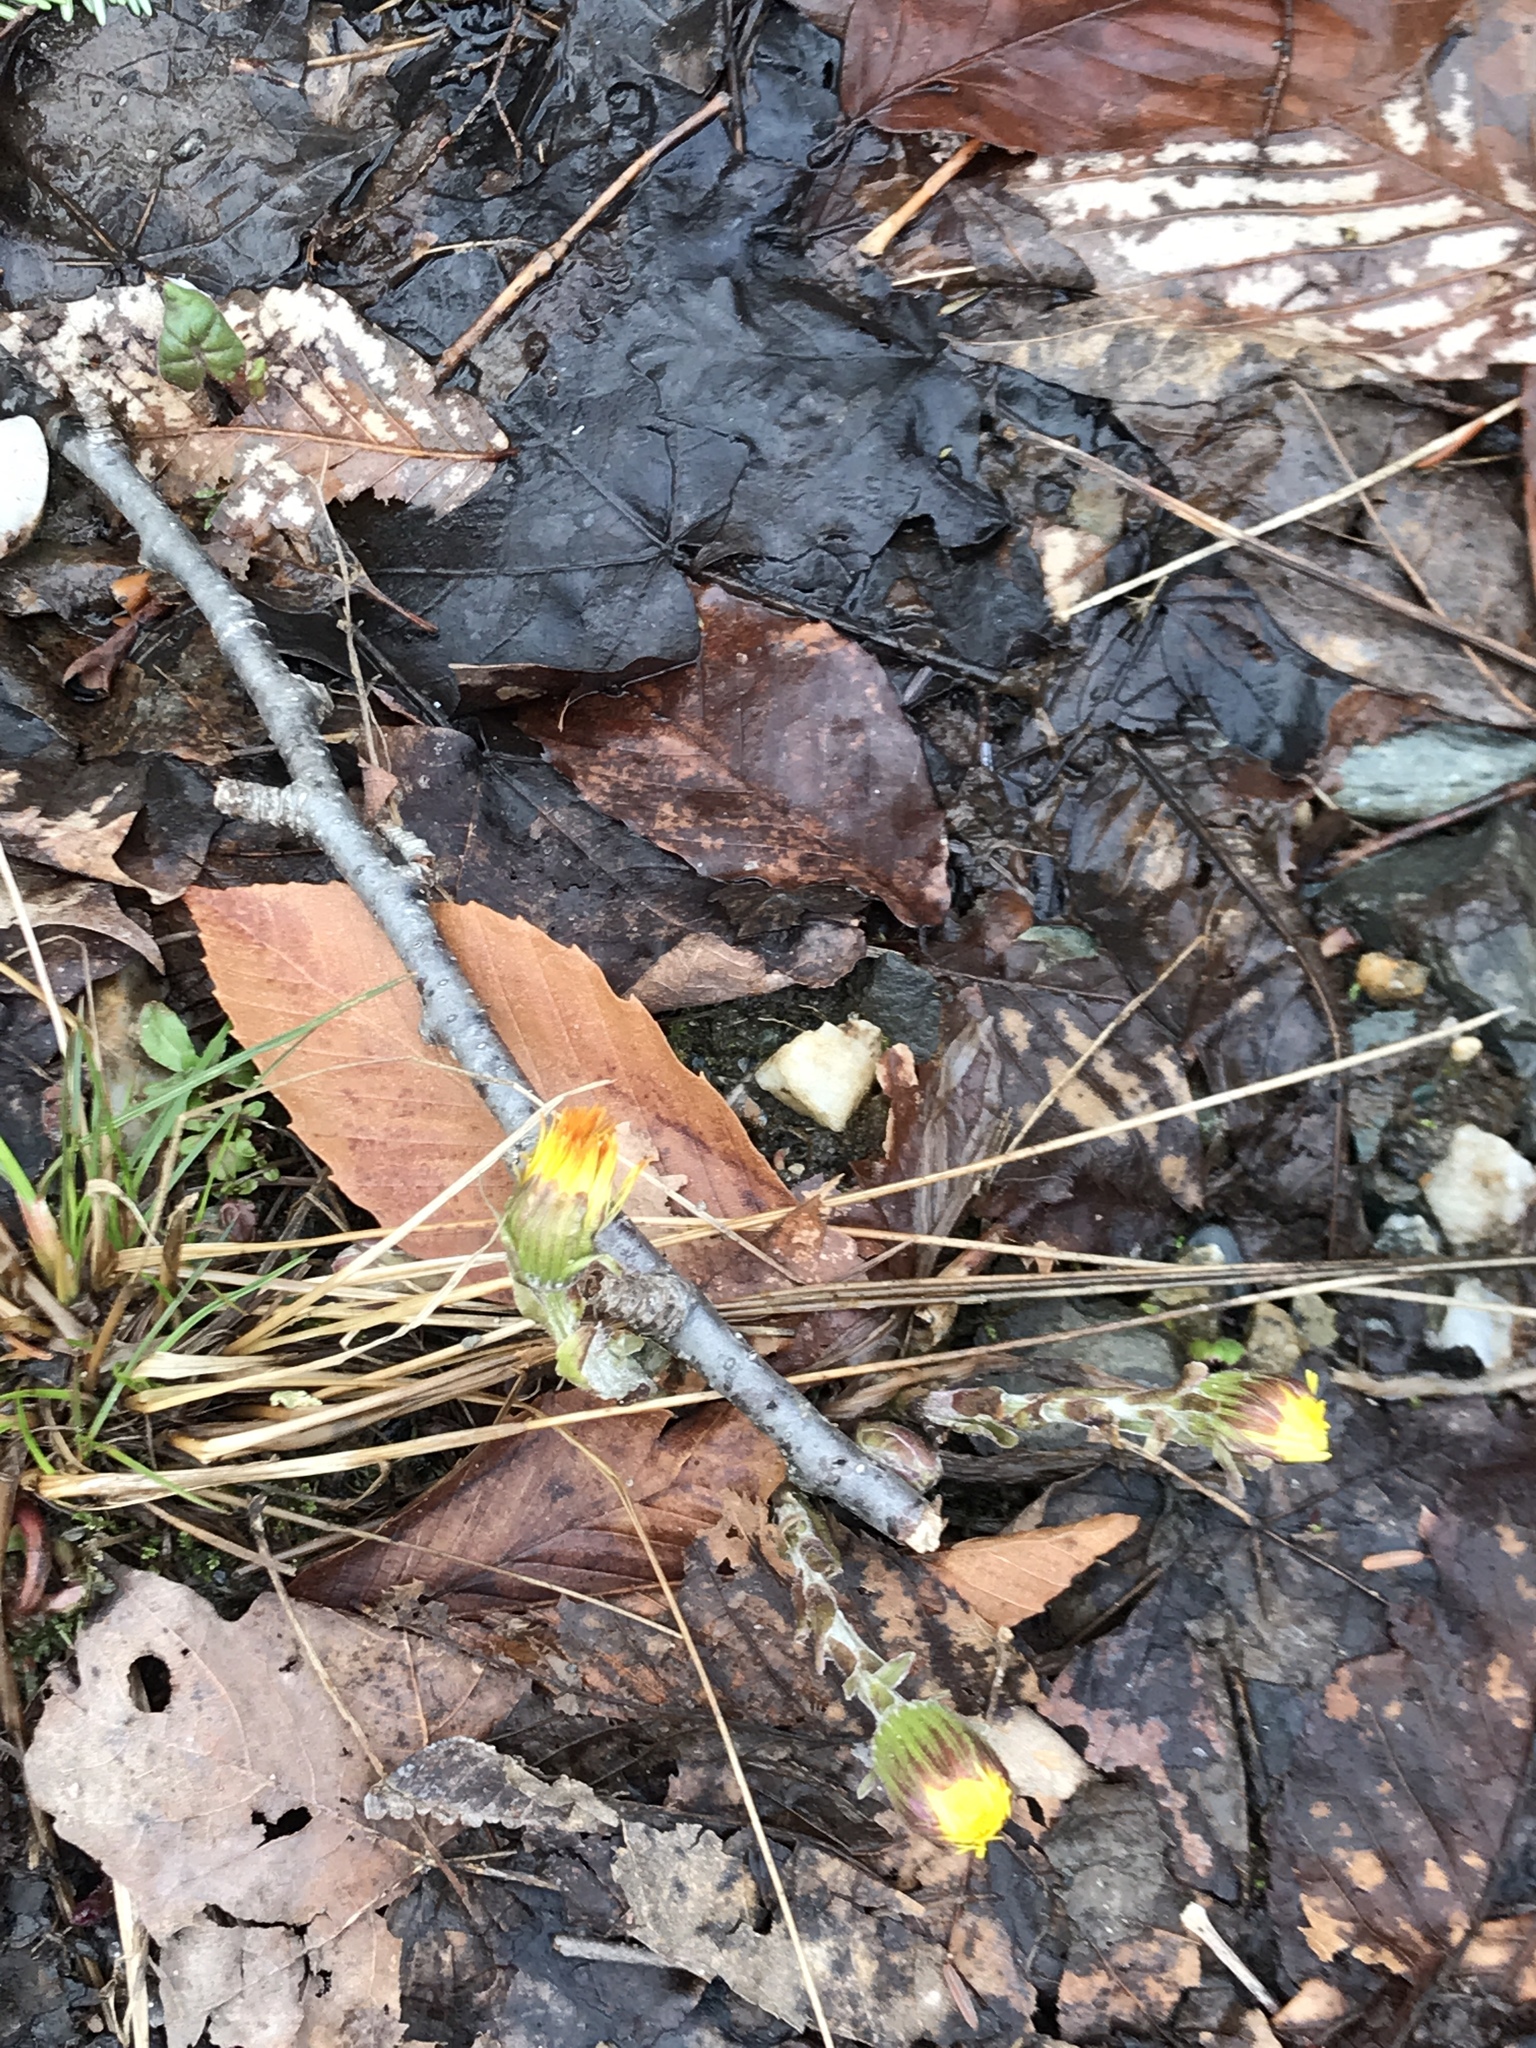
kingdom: Plantae
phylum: Tracheophyta
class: Magnoliopsida
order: Asterales
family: Asteraceae
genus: Tussilago
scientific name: Tussilago farfara
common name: Coltsfoot
